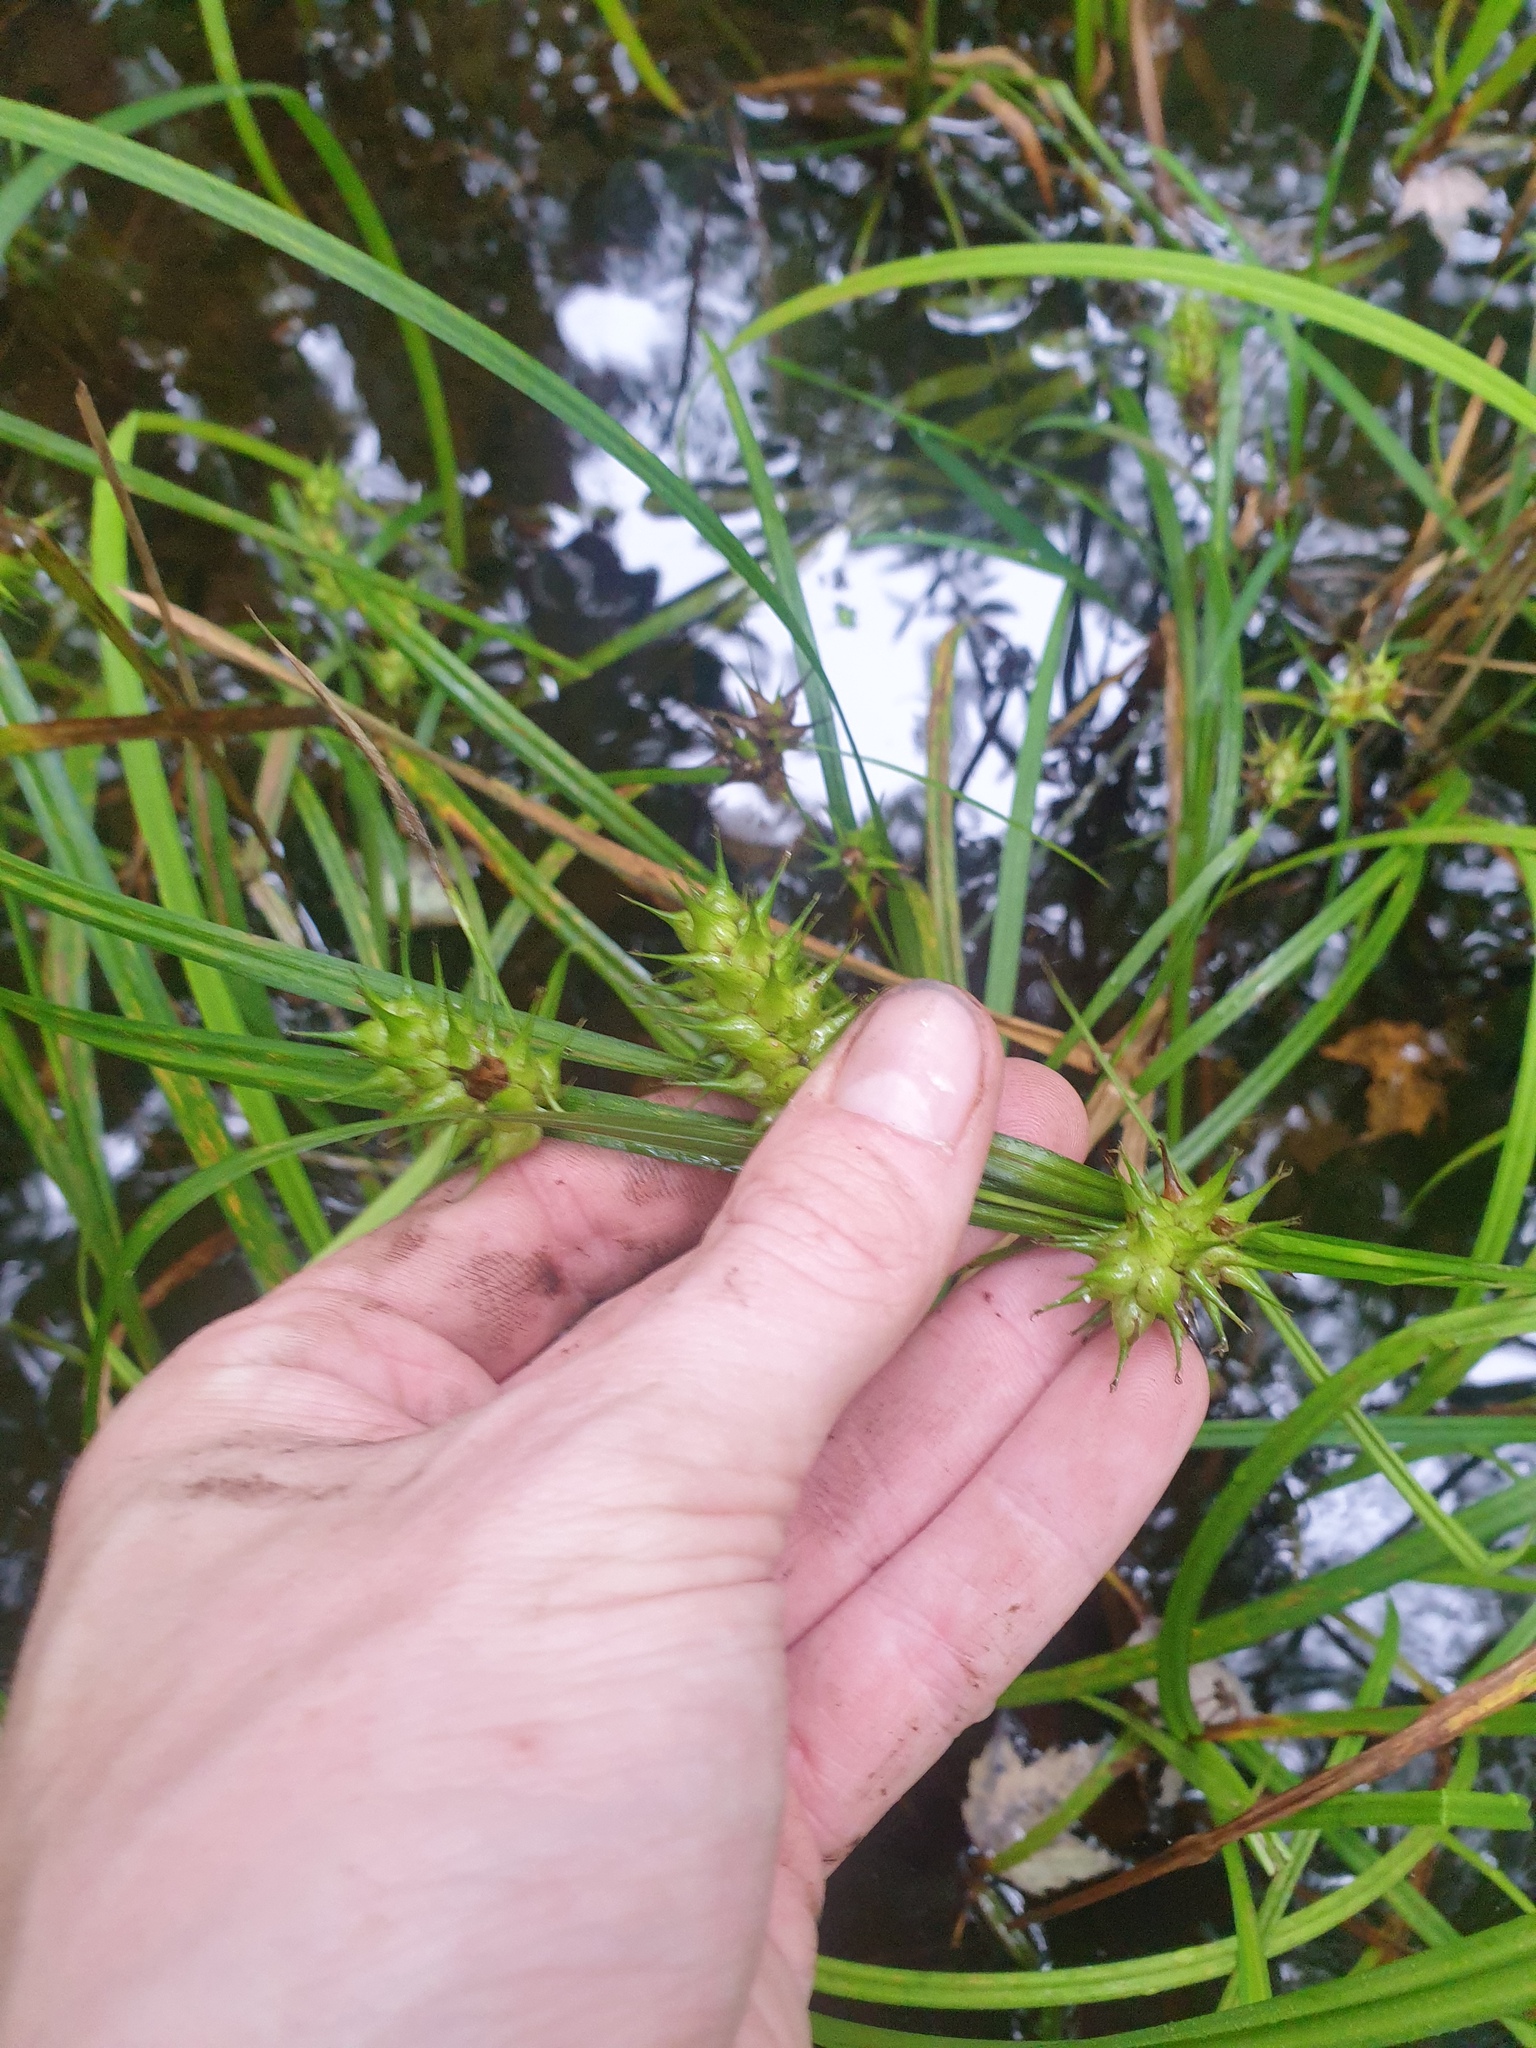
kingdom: Plantae
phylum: Tracheophyta
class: Liliopsida
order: Poales
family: Cyperaceae
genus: Carex
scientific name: Carex lupulina
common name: Hop sedge
